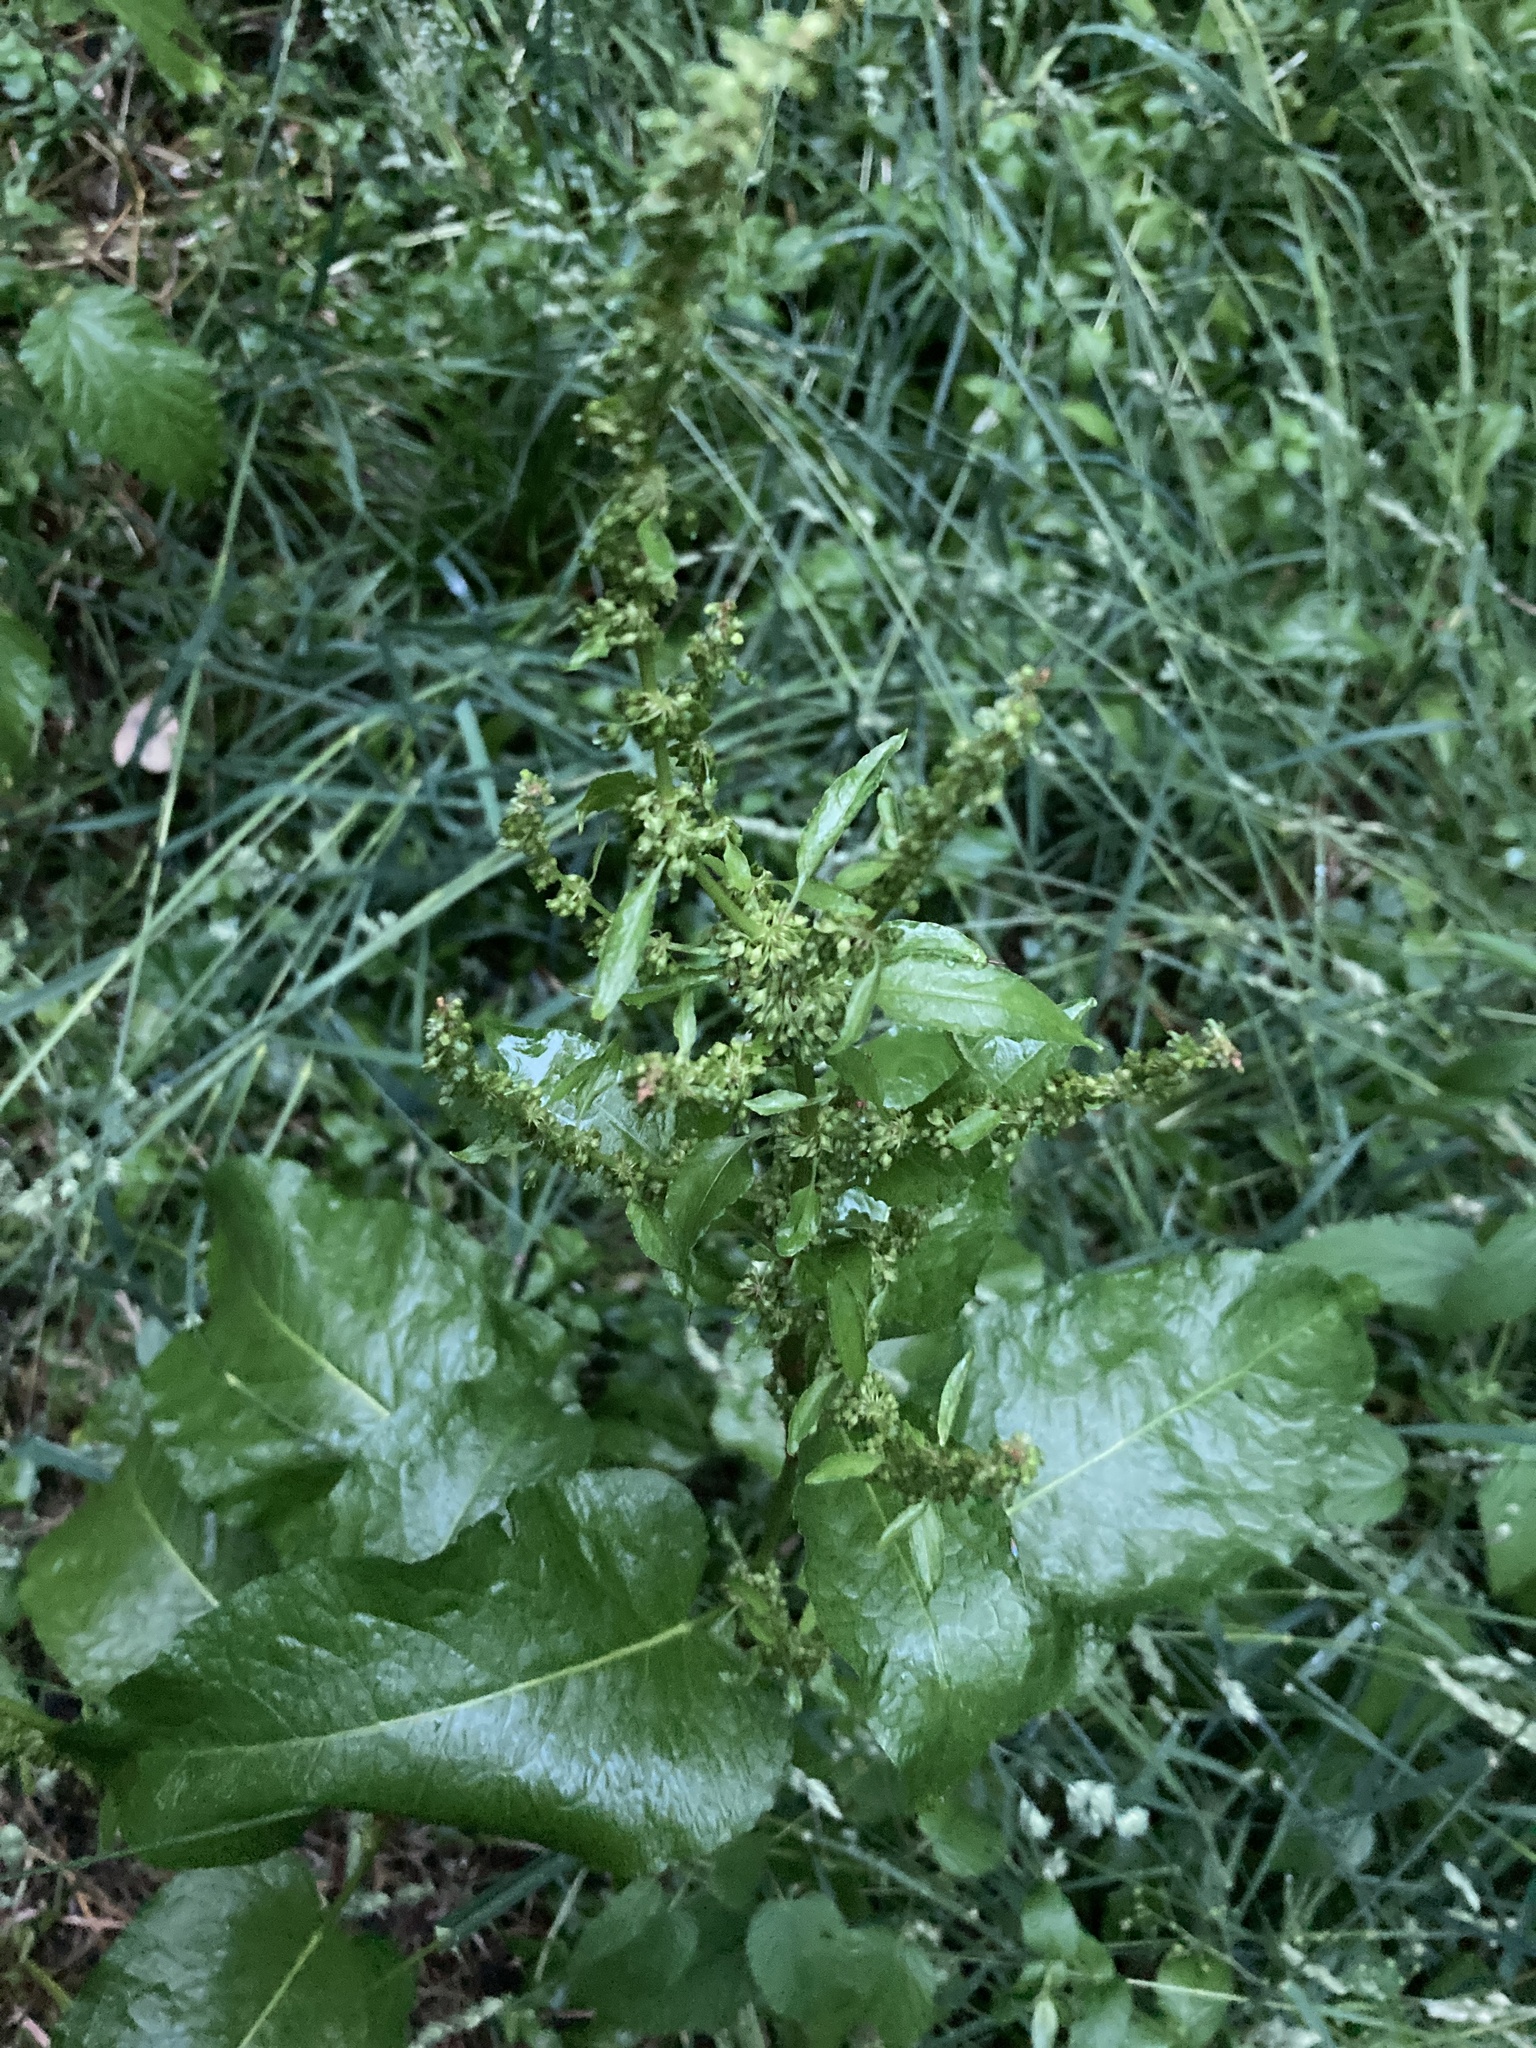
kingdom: Plantae
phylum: Tracheophyta
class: Magnoliopsida
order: Caryophyllales
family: Polygonaceae
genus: Rumex
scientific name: Rumex obtusifolius
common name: Bitter dock
